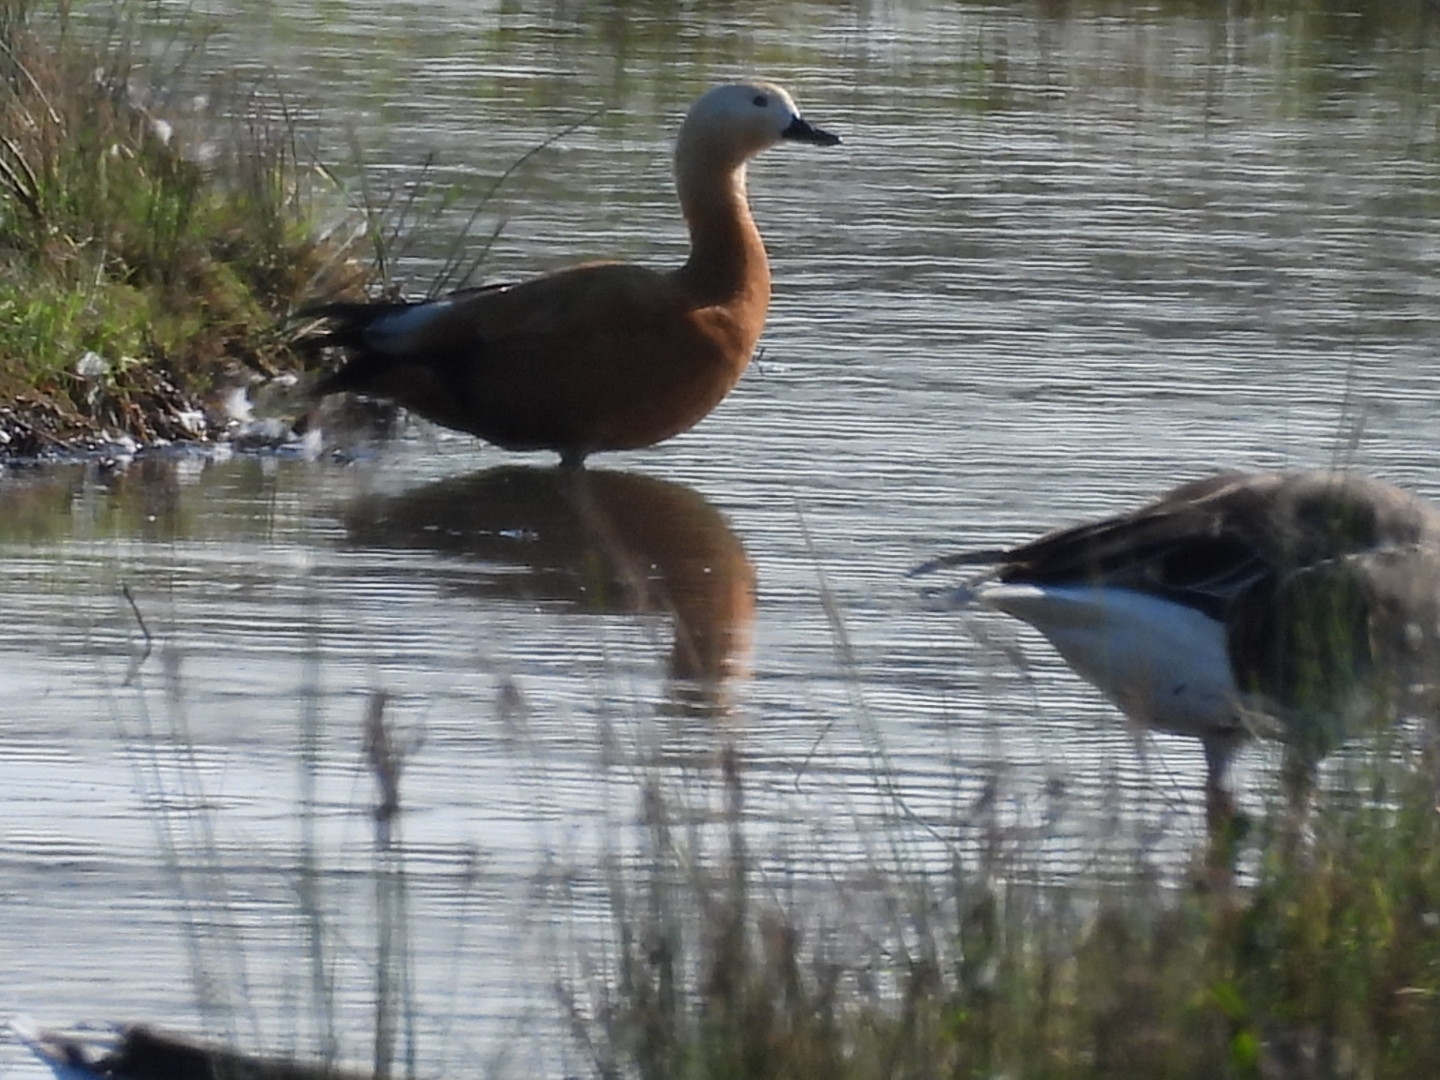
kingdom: Animalia
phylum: Chordata
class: Aves
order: Anseriformes
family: Anatidae
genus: Tadorna
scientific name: Tadorna ferruginea
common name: Ruddy shelduck
